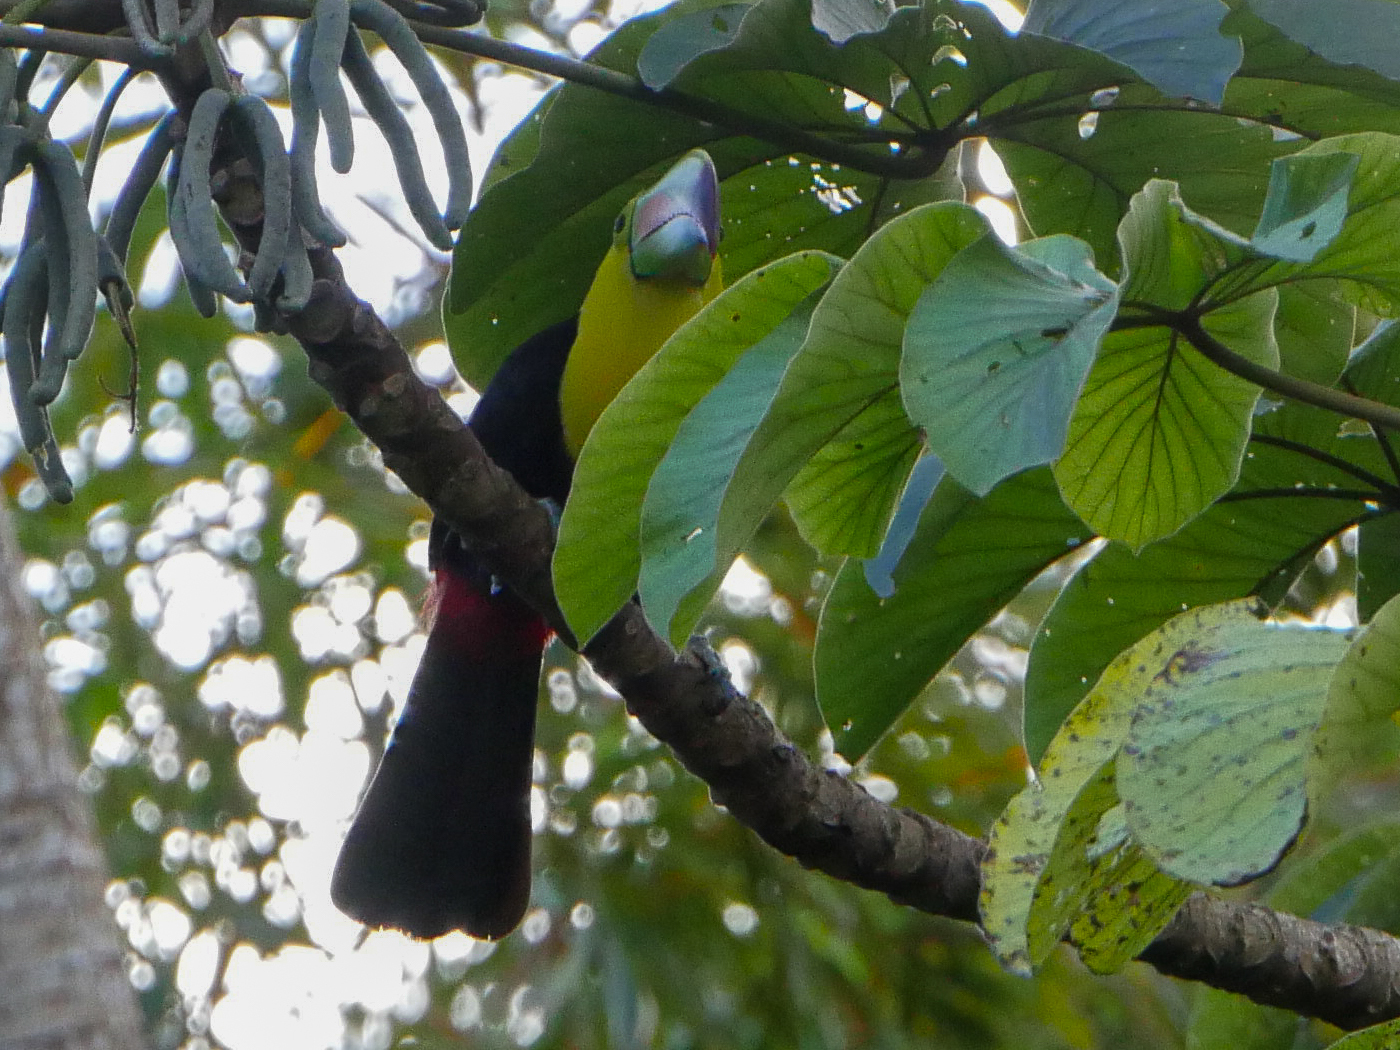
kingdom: Animalia
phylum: Chordata
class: Aves
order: Piciformes
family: Ramphastidae
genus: Ramphastos
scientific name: Ramphastos sulfuratus
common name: Keel-billed toucan
